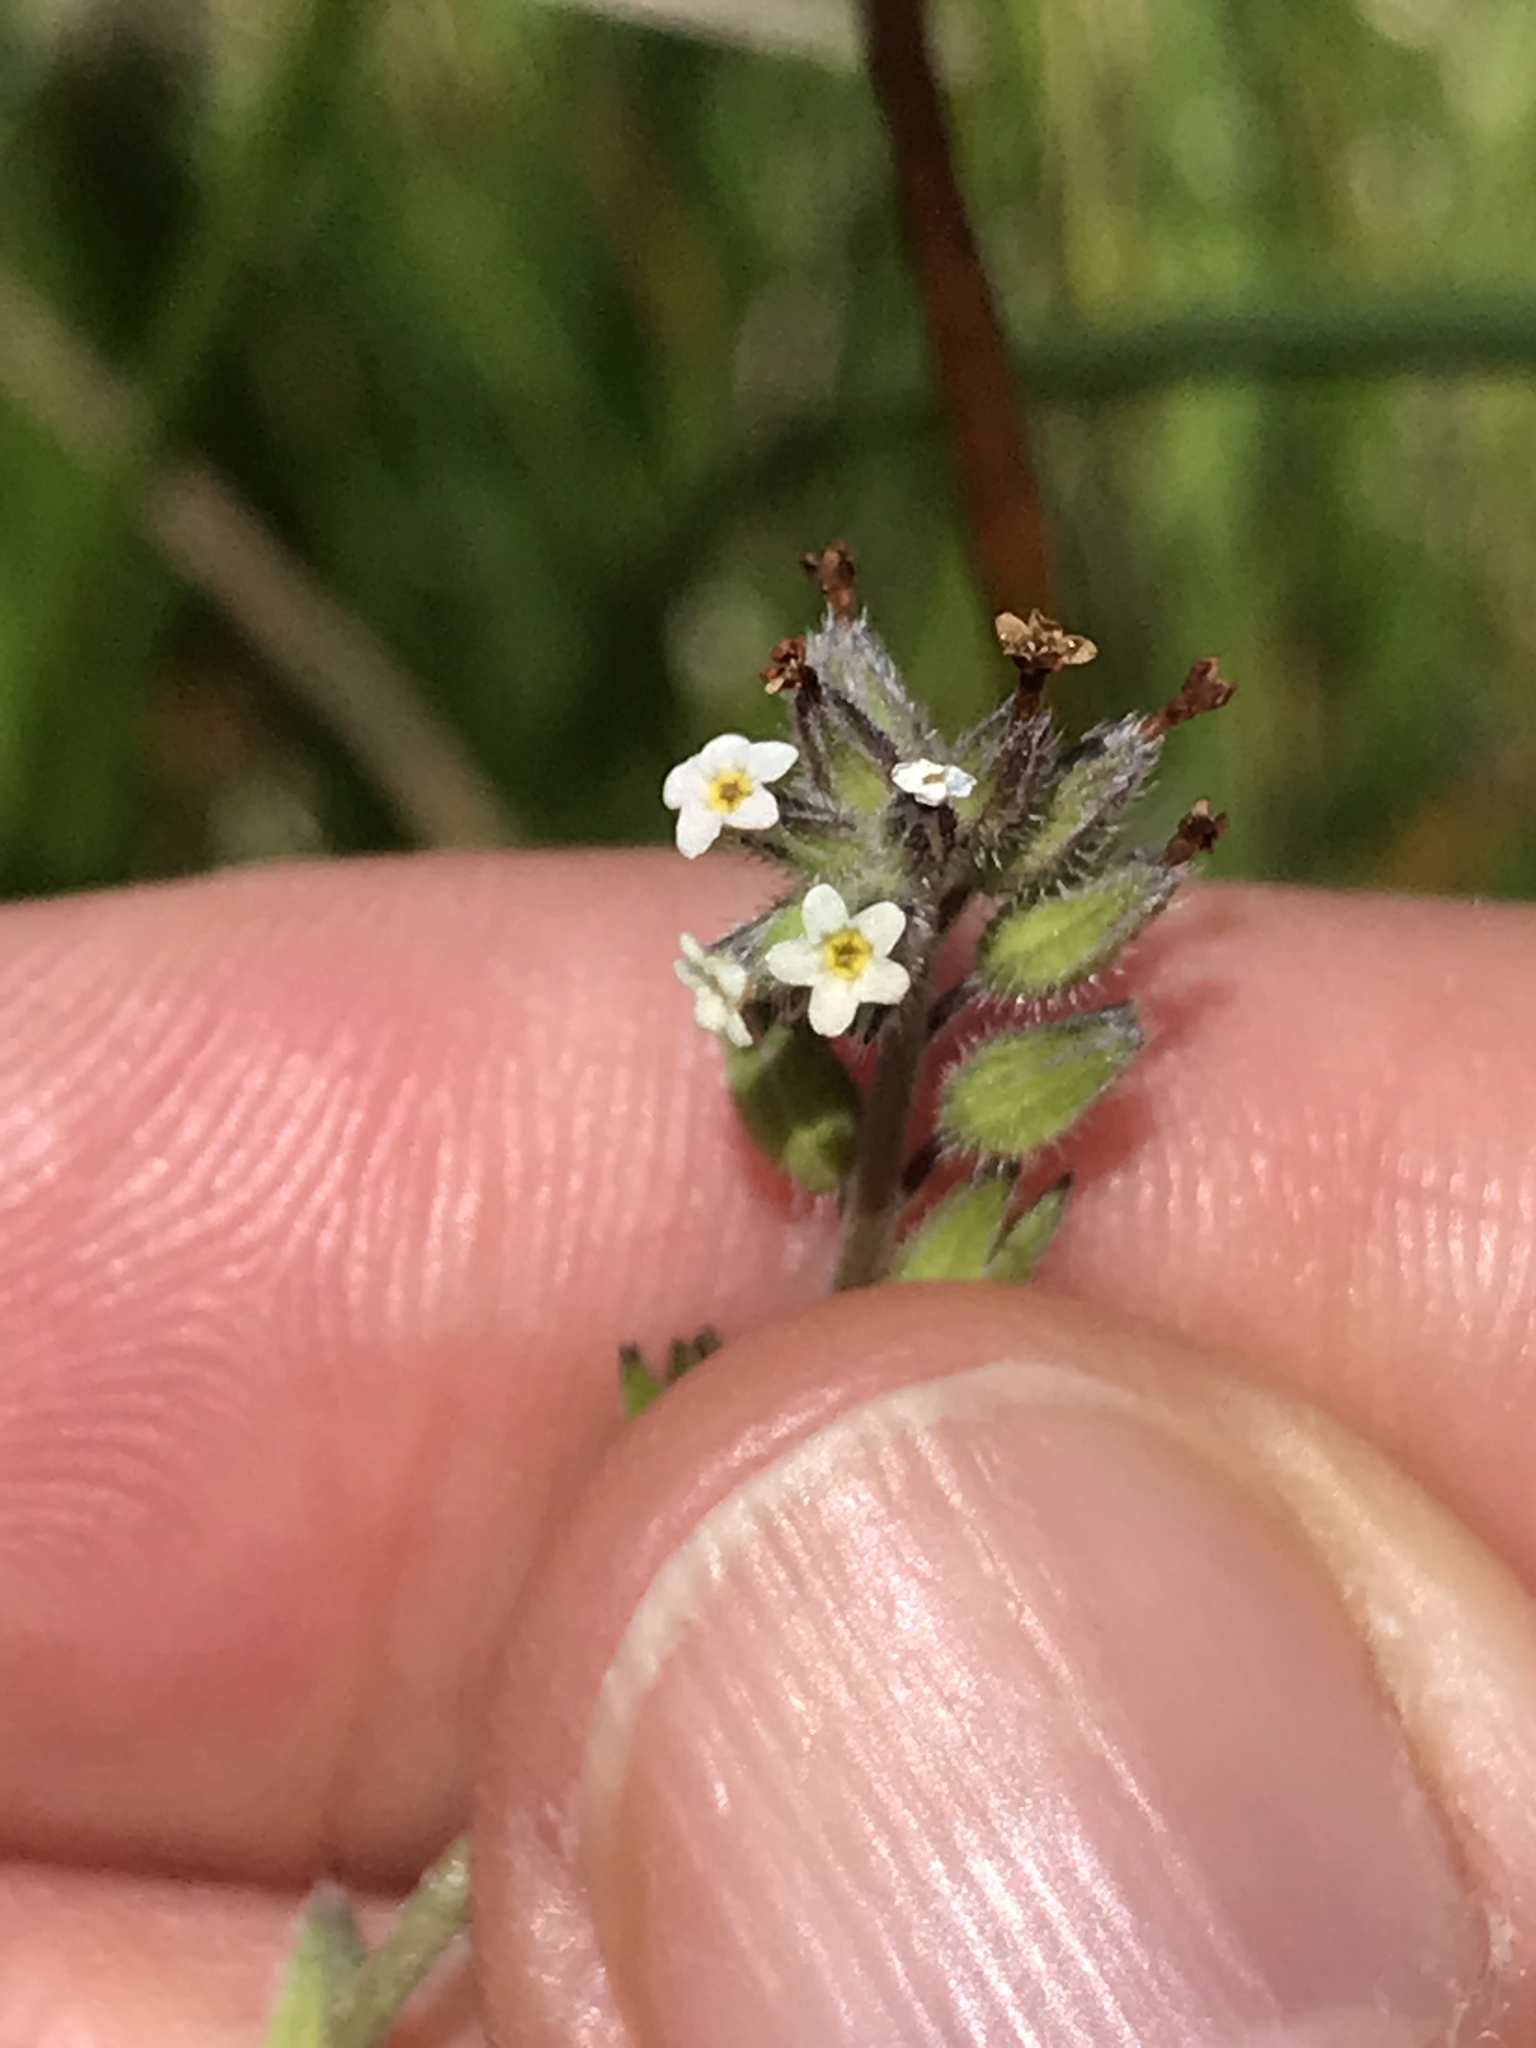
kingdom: Plantae
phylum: Tracheophyta
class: Magnoliopsida
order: Boraginales
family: Boraginaceae
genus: Myosotis
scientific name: Myosotis discolor
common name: Changing forget-me-not
